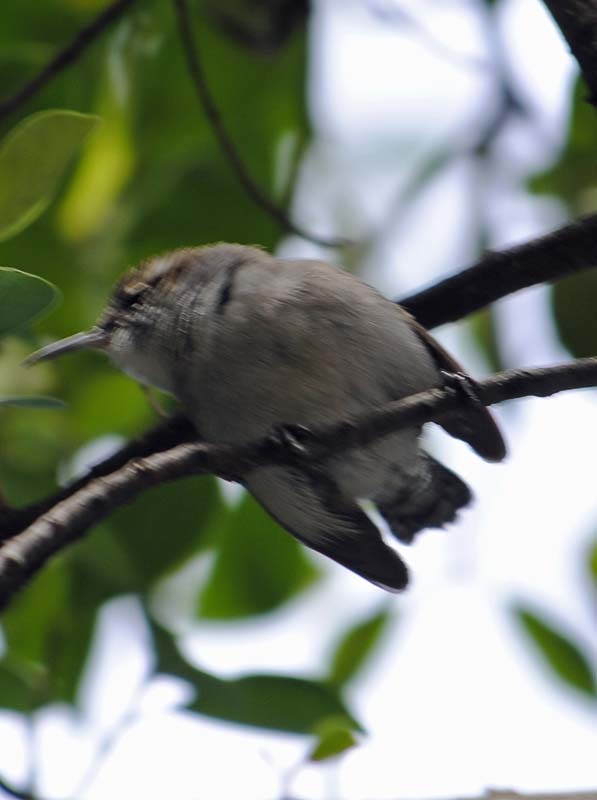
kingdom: Animalia
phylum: Chordata
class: Aves
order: Passeriformes
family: Troglodytidae
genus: Thryomanes
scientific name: Thryomanes bewickii
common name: Bewick's wren
